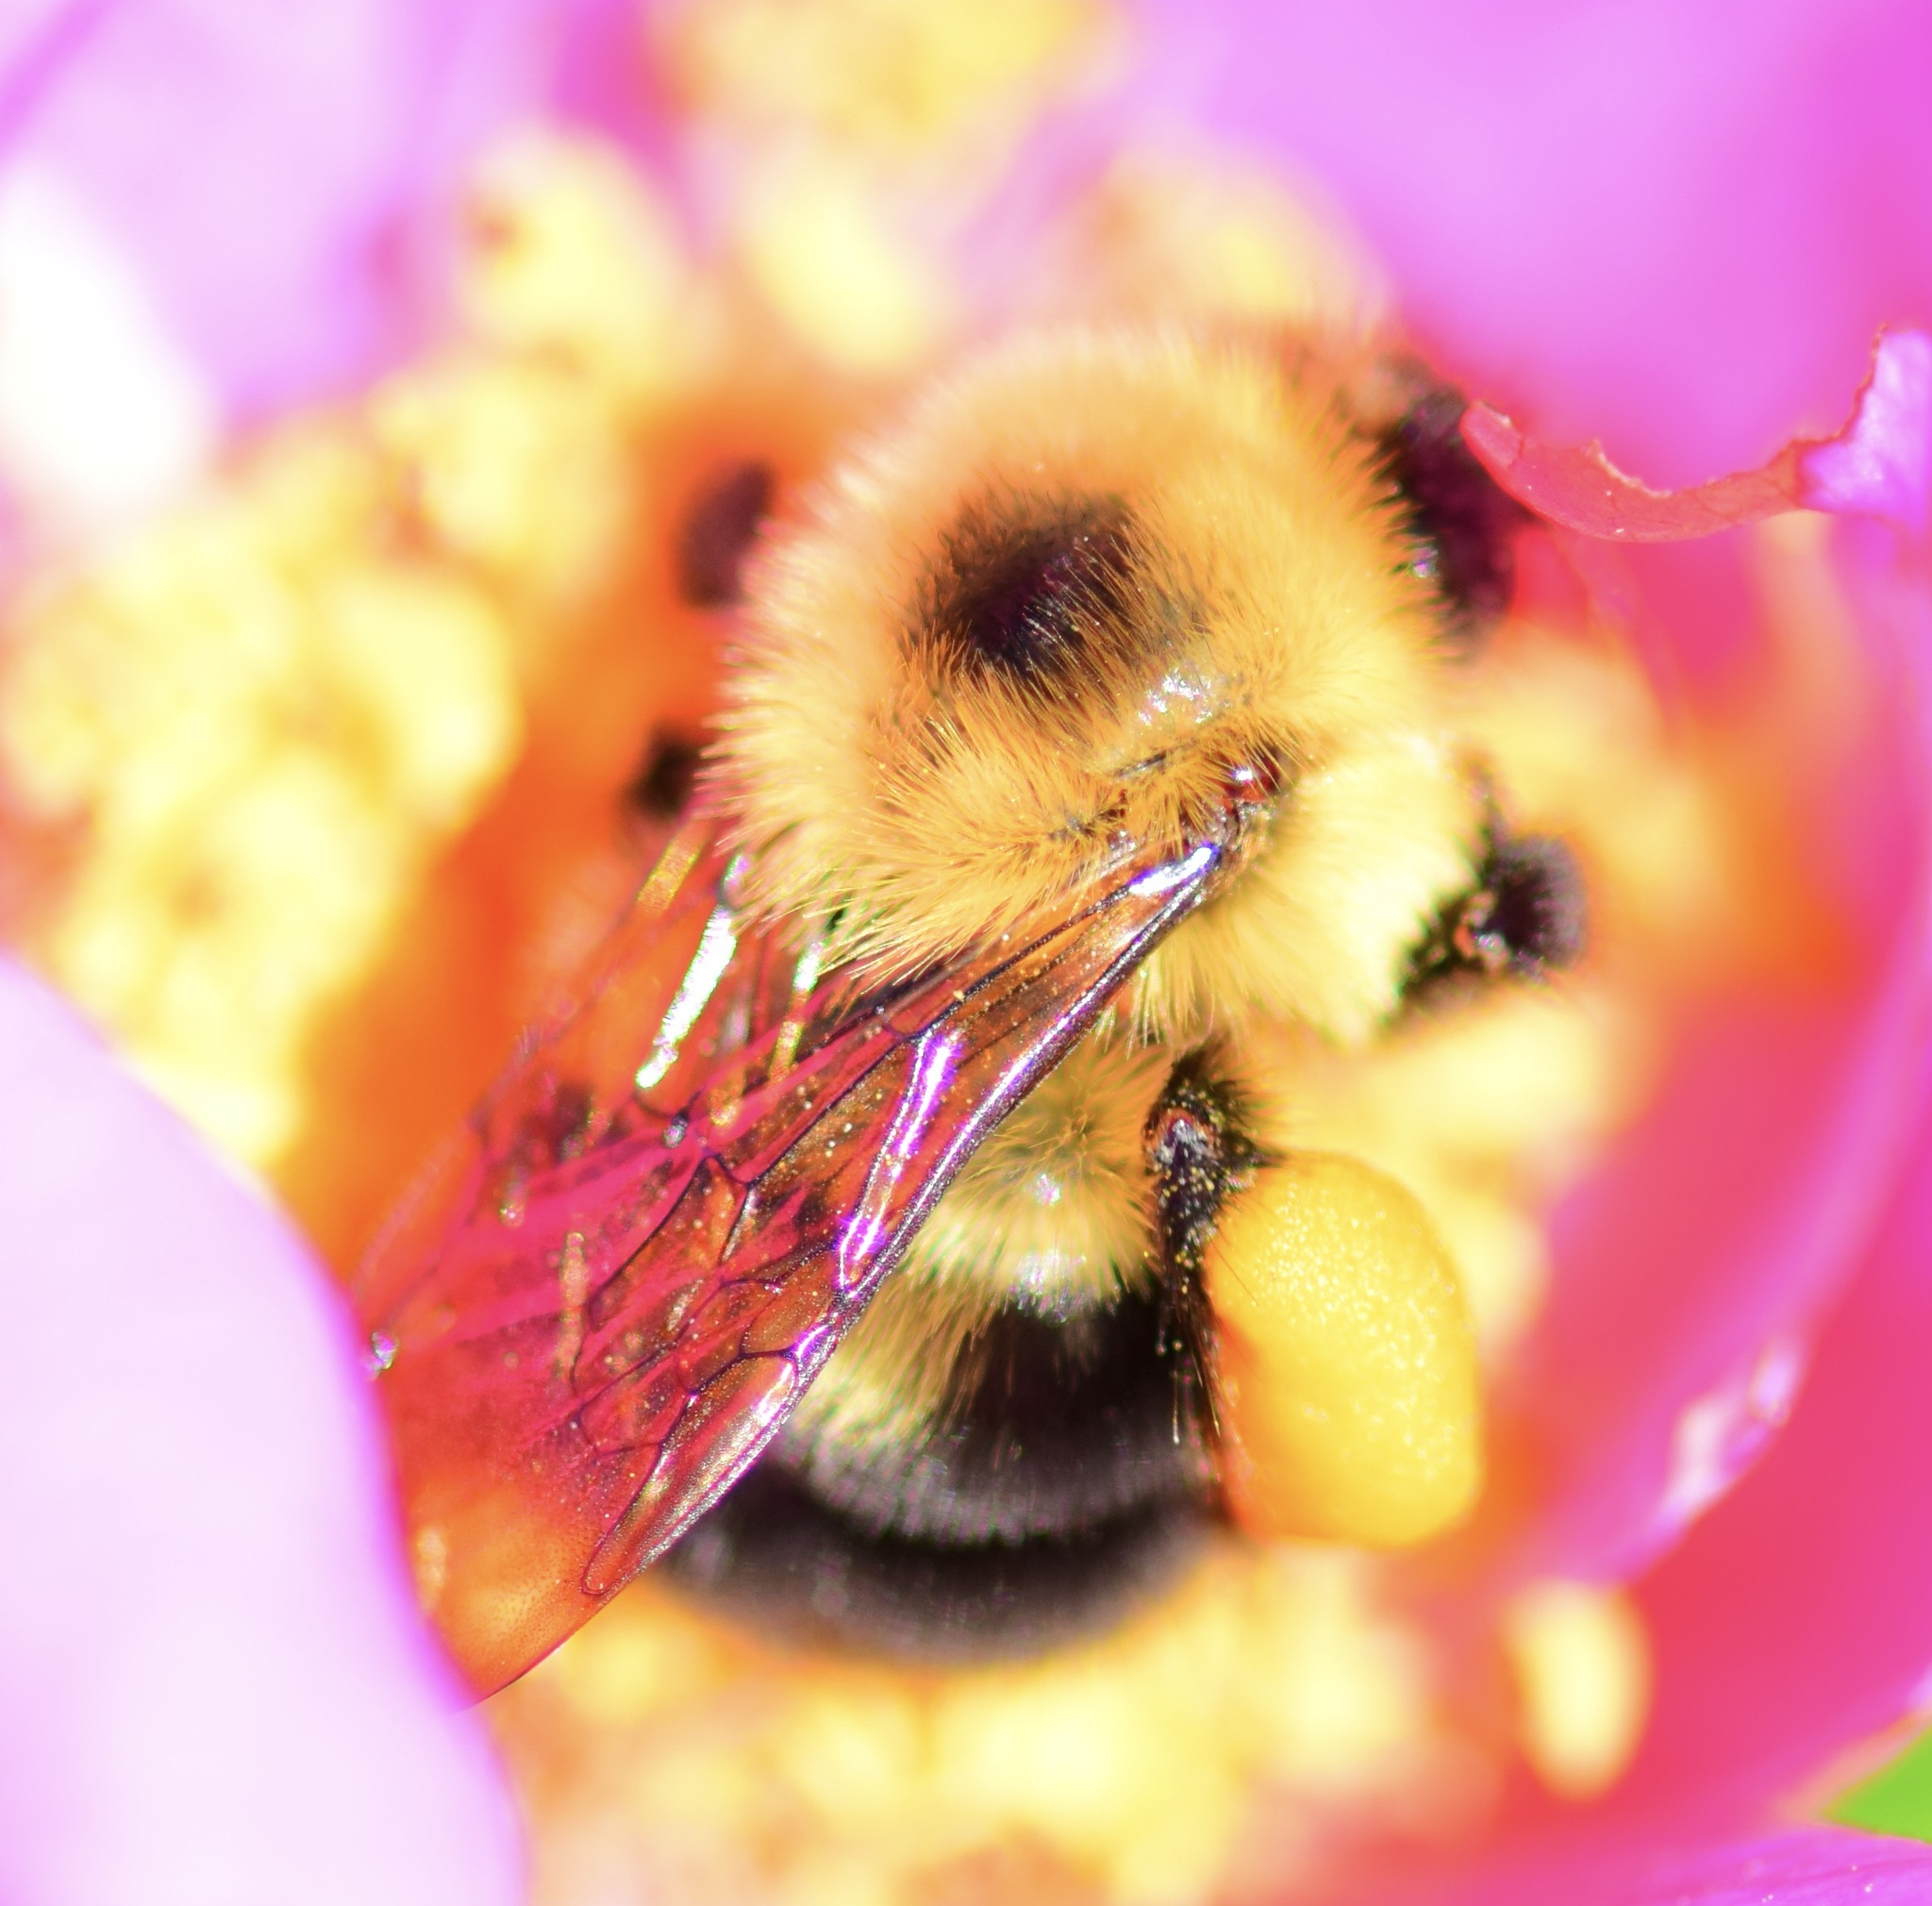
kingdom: Animalia
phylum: Arthropoda
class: Insecta
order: Hymenoptera
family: Apidae
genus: Bombus
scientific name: Bombus bimaculatus
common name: Two-spotted bumble bee
